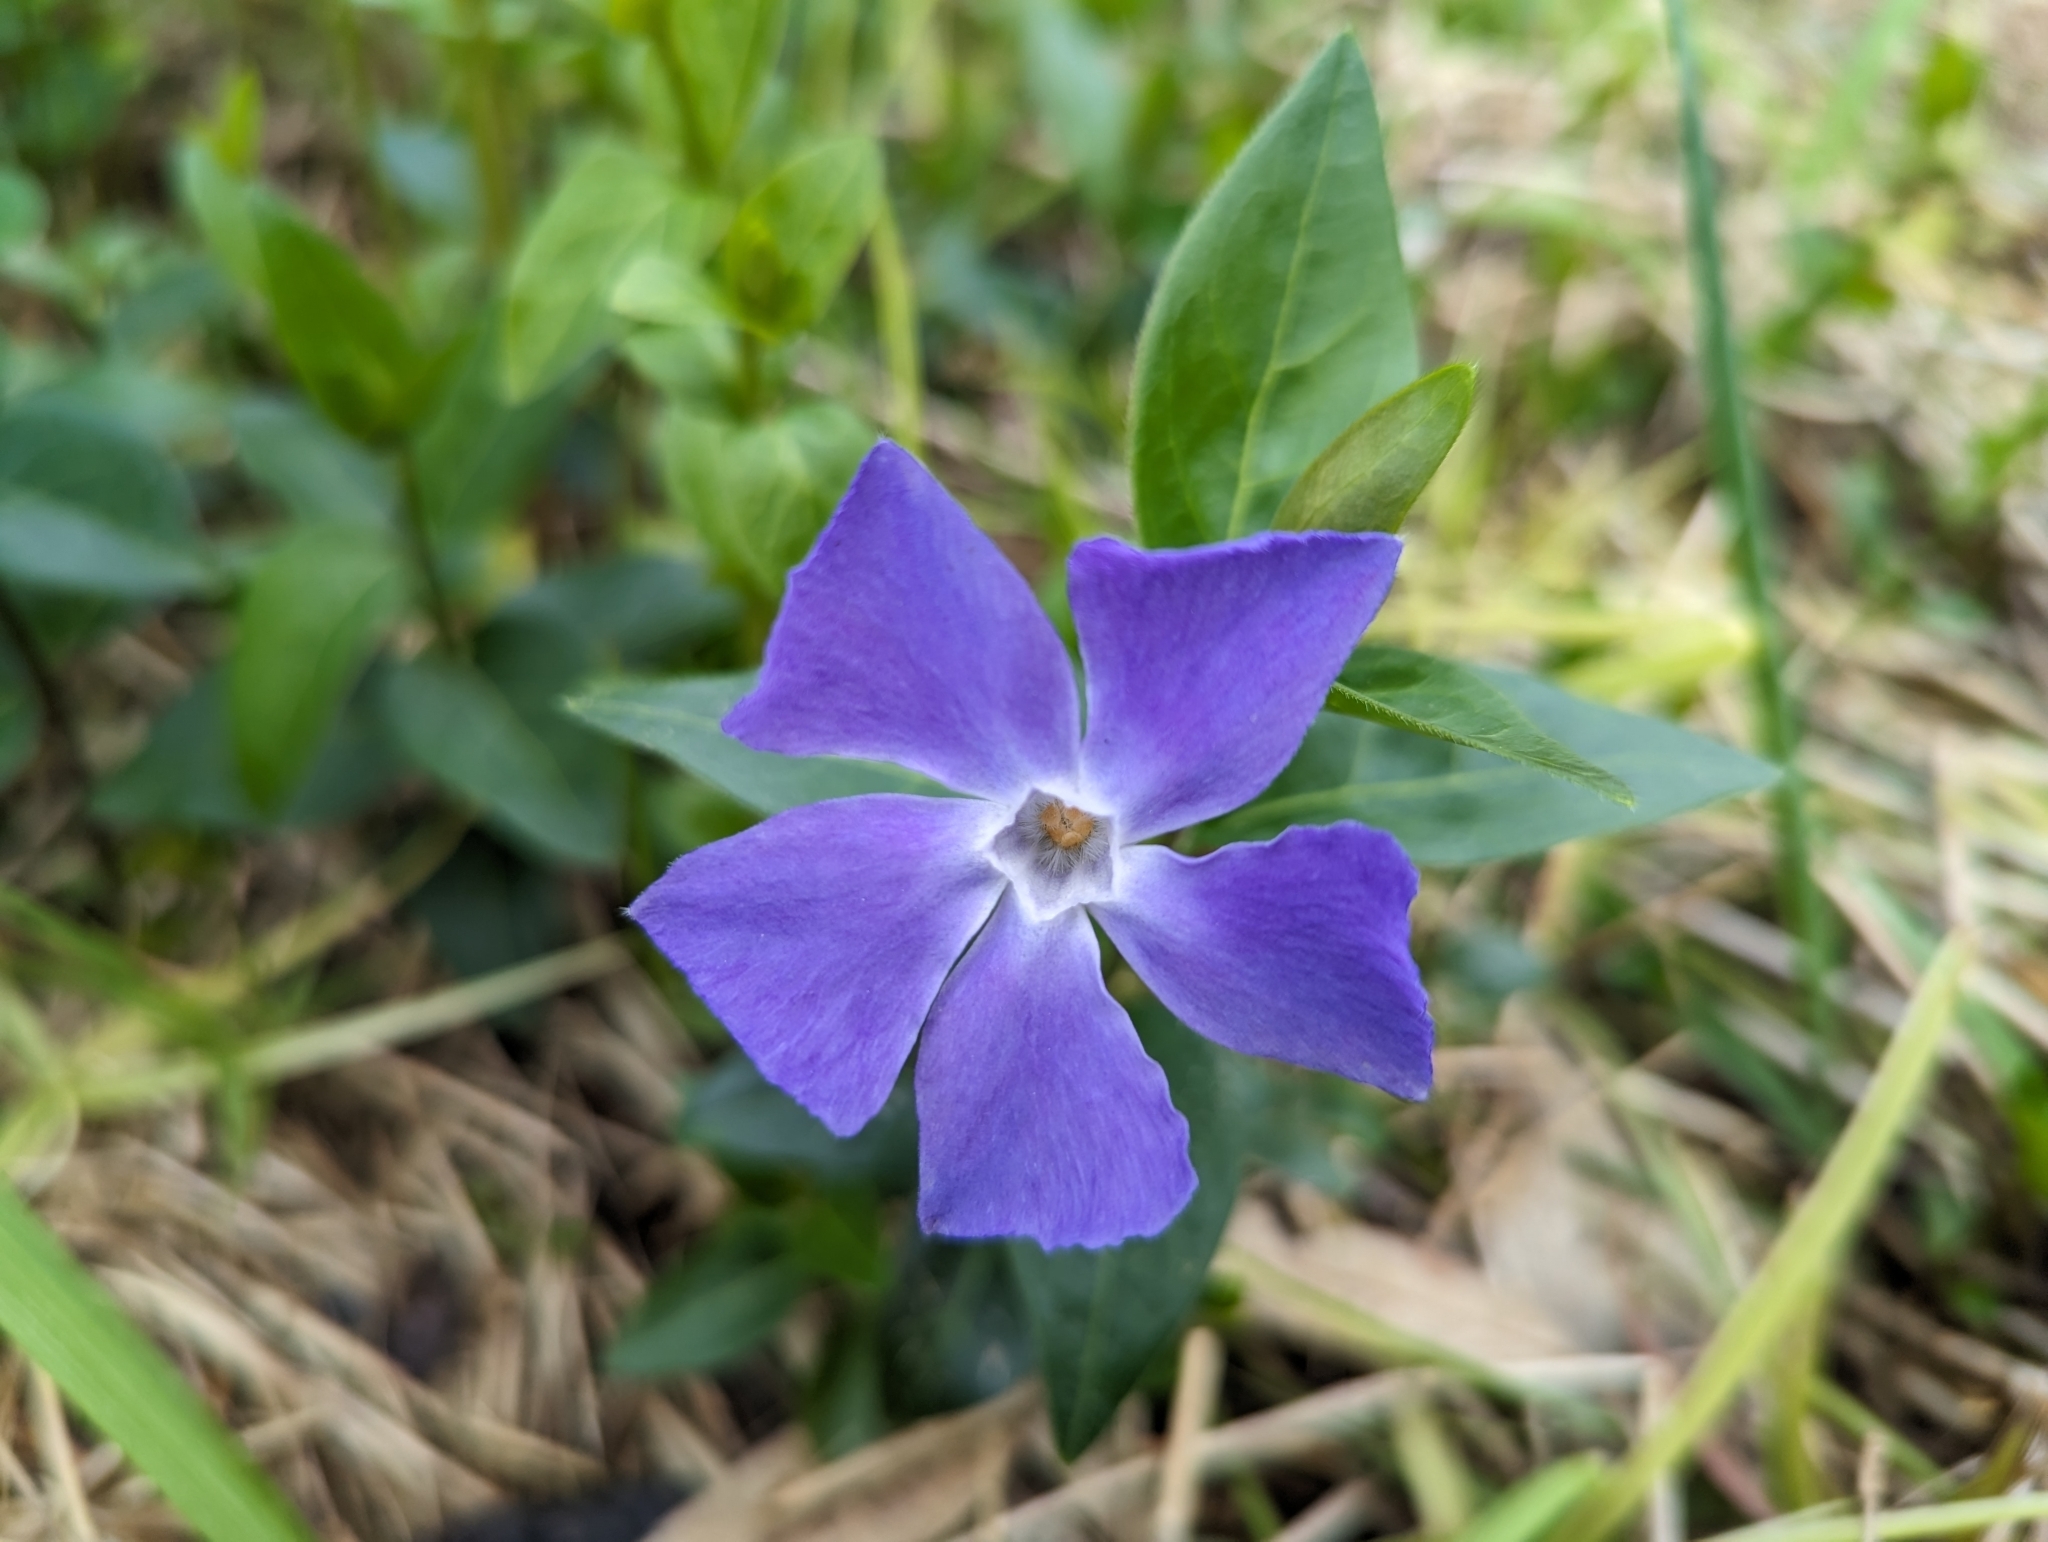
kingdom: Plantae
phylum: Tracheophyta
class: Magnoliopsida
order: Gentianales
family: Apocynaceae
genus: Vinca
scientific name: Vinca major
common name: Greater periwinkle
